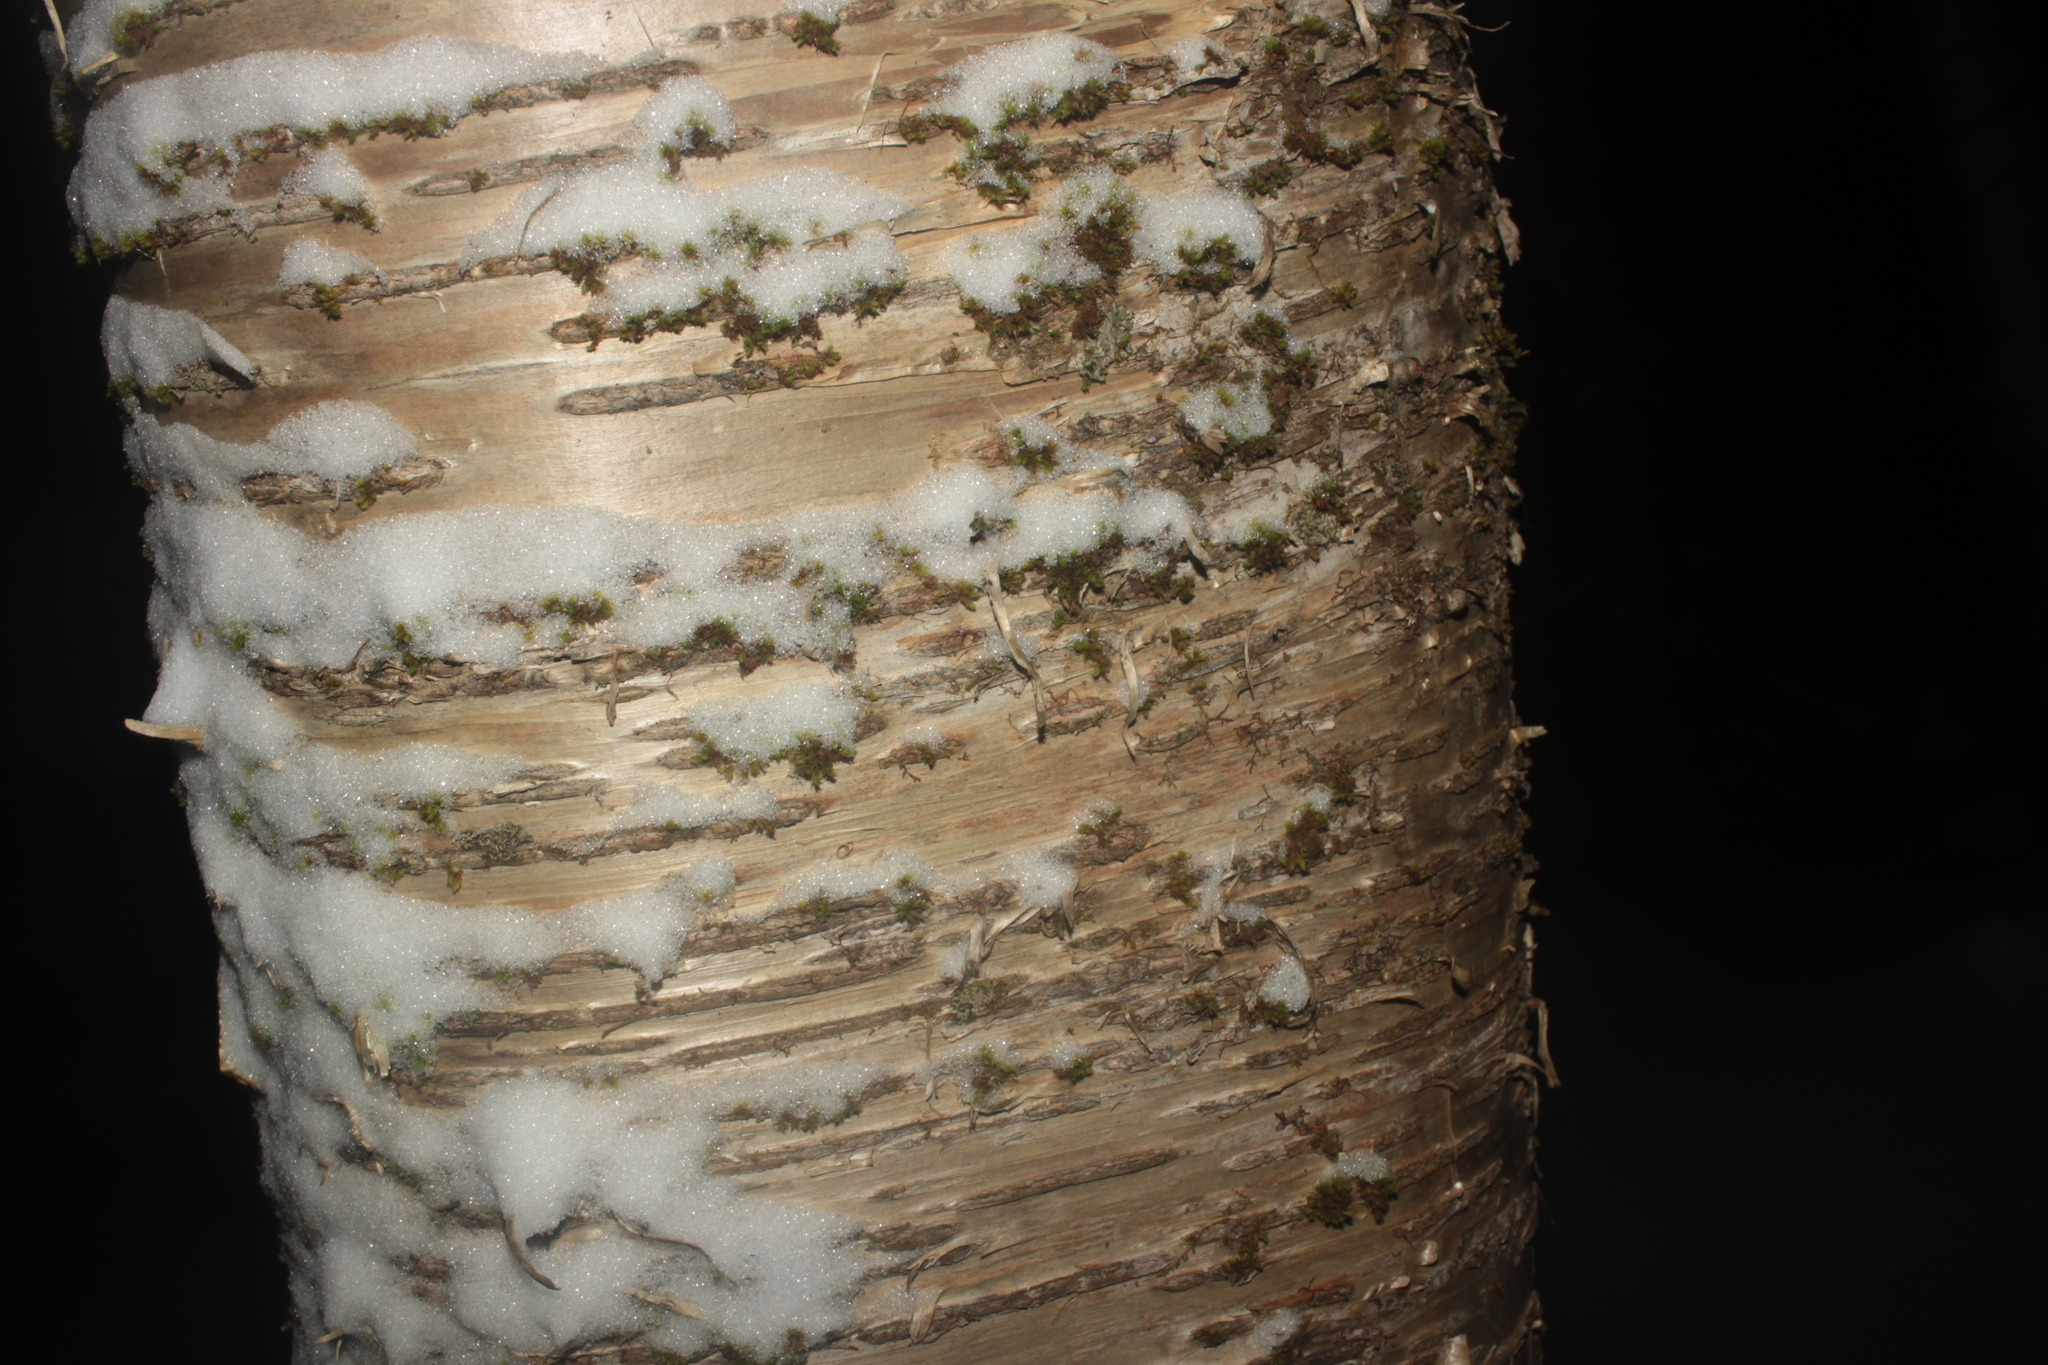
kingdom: Plantae
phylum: Tracheophyta
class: Magnoliopsida
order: Fagales
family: Betulaceae
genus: Betula
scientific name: Betula alleghaniensis
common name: Yellow birch
